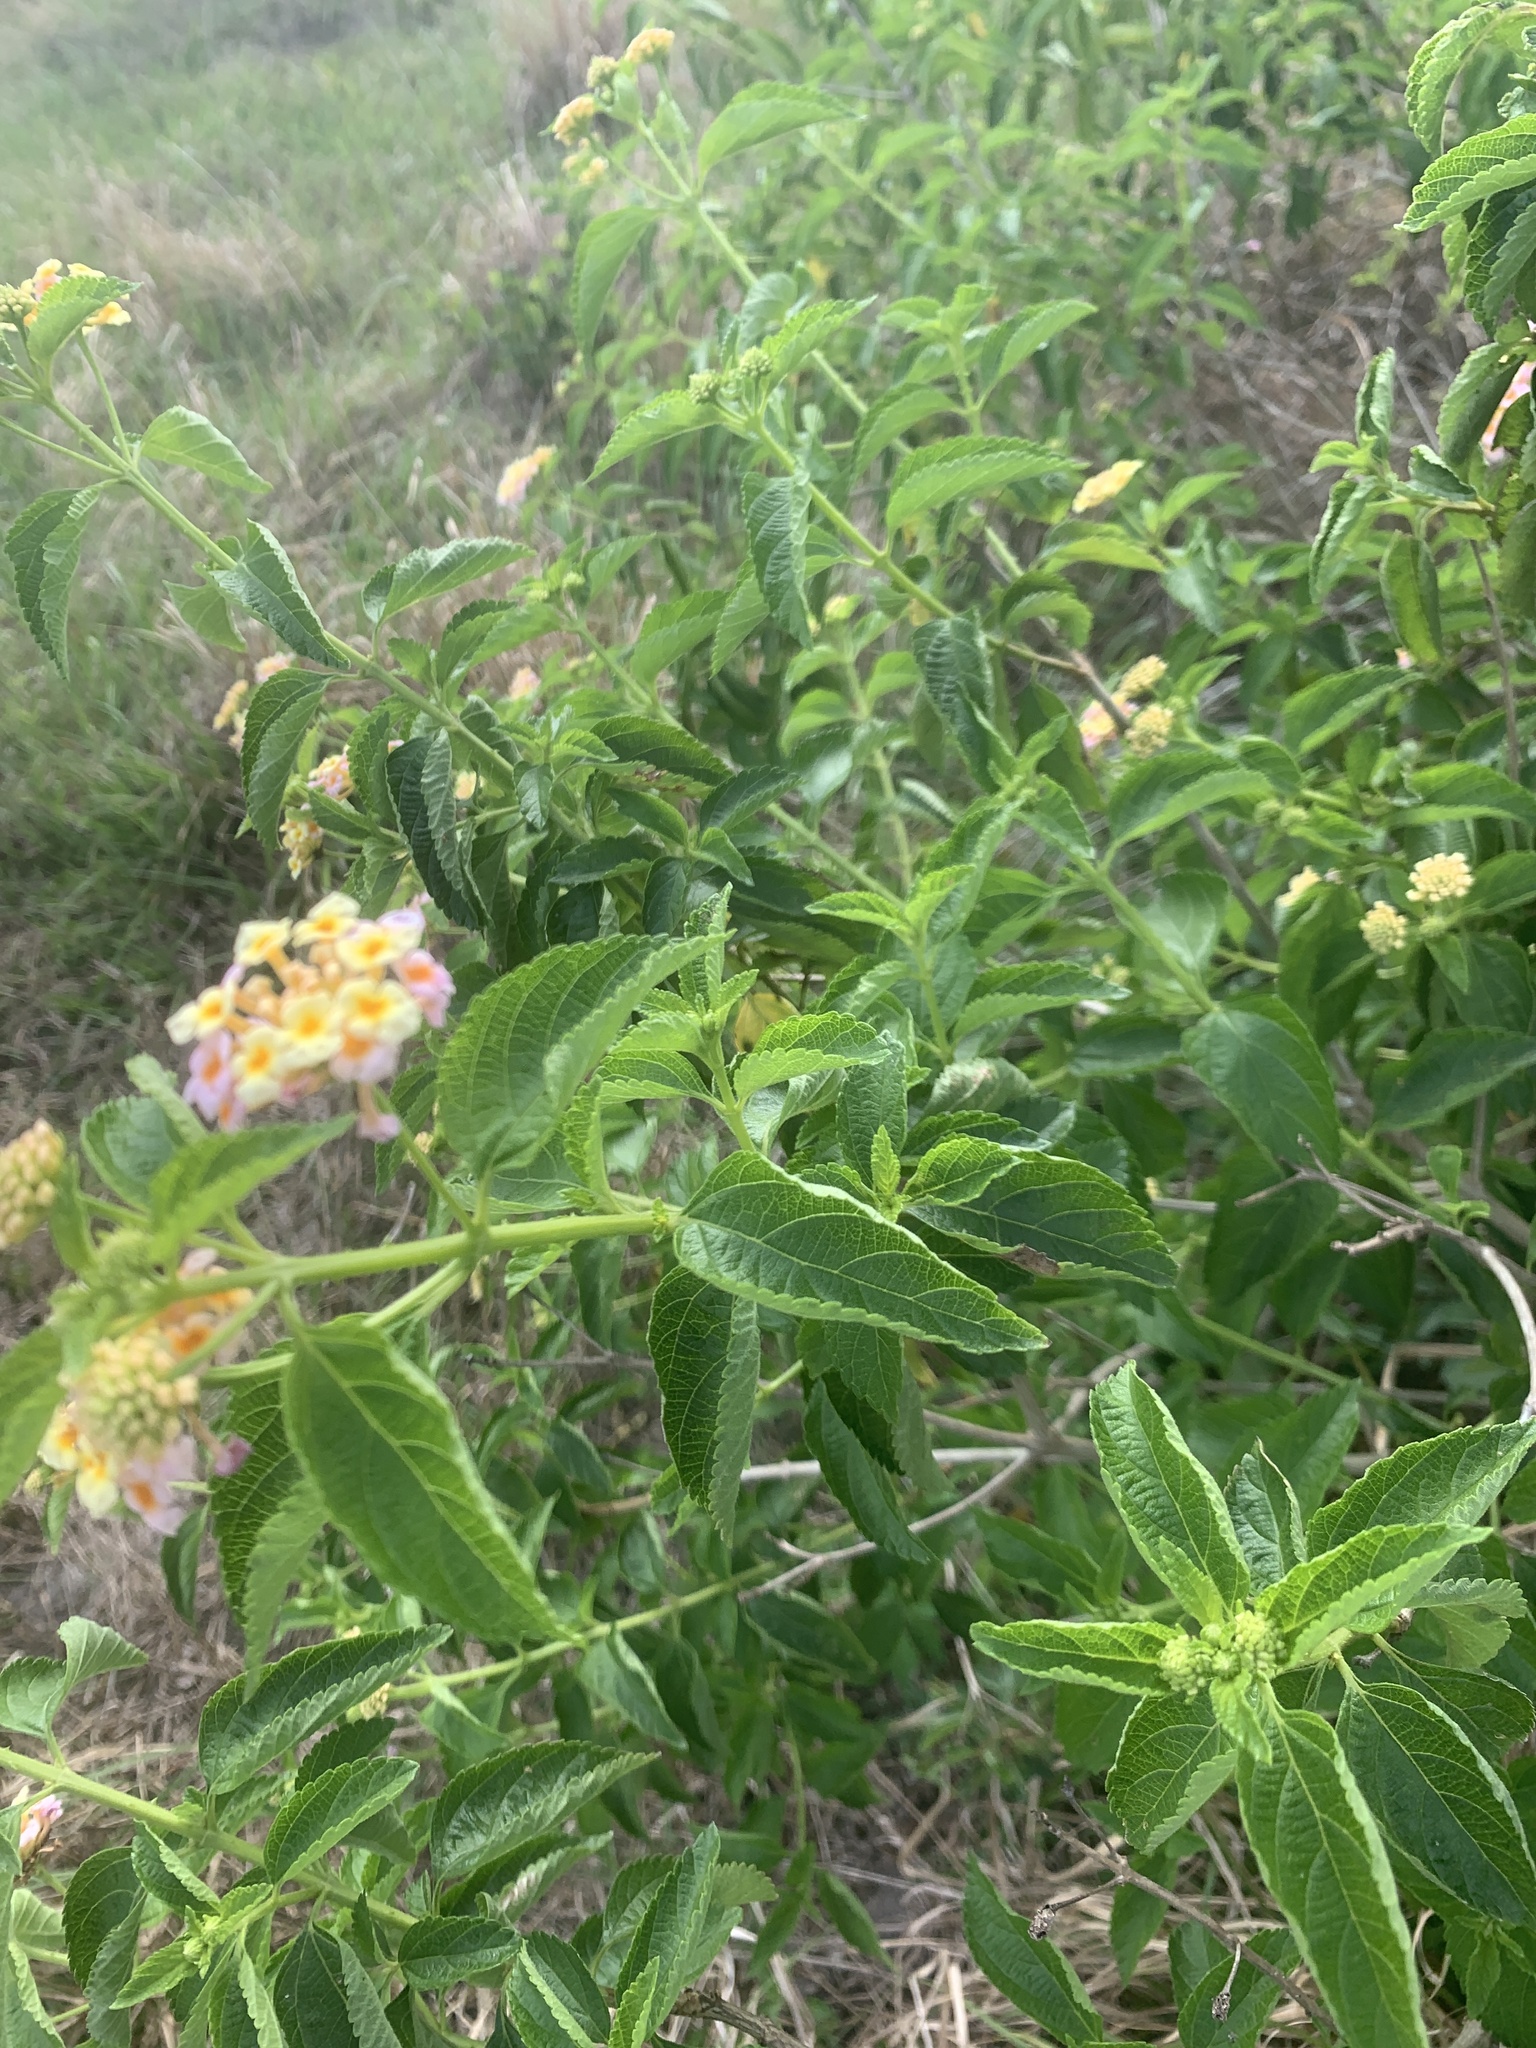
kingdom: Plantae
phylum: Tracheophyta
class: Magnoliopsida
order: Lamiales
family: Verbenaceae
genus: Lantana
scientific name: Lantana strigocamara
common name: Lantana
